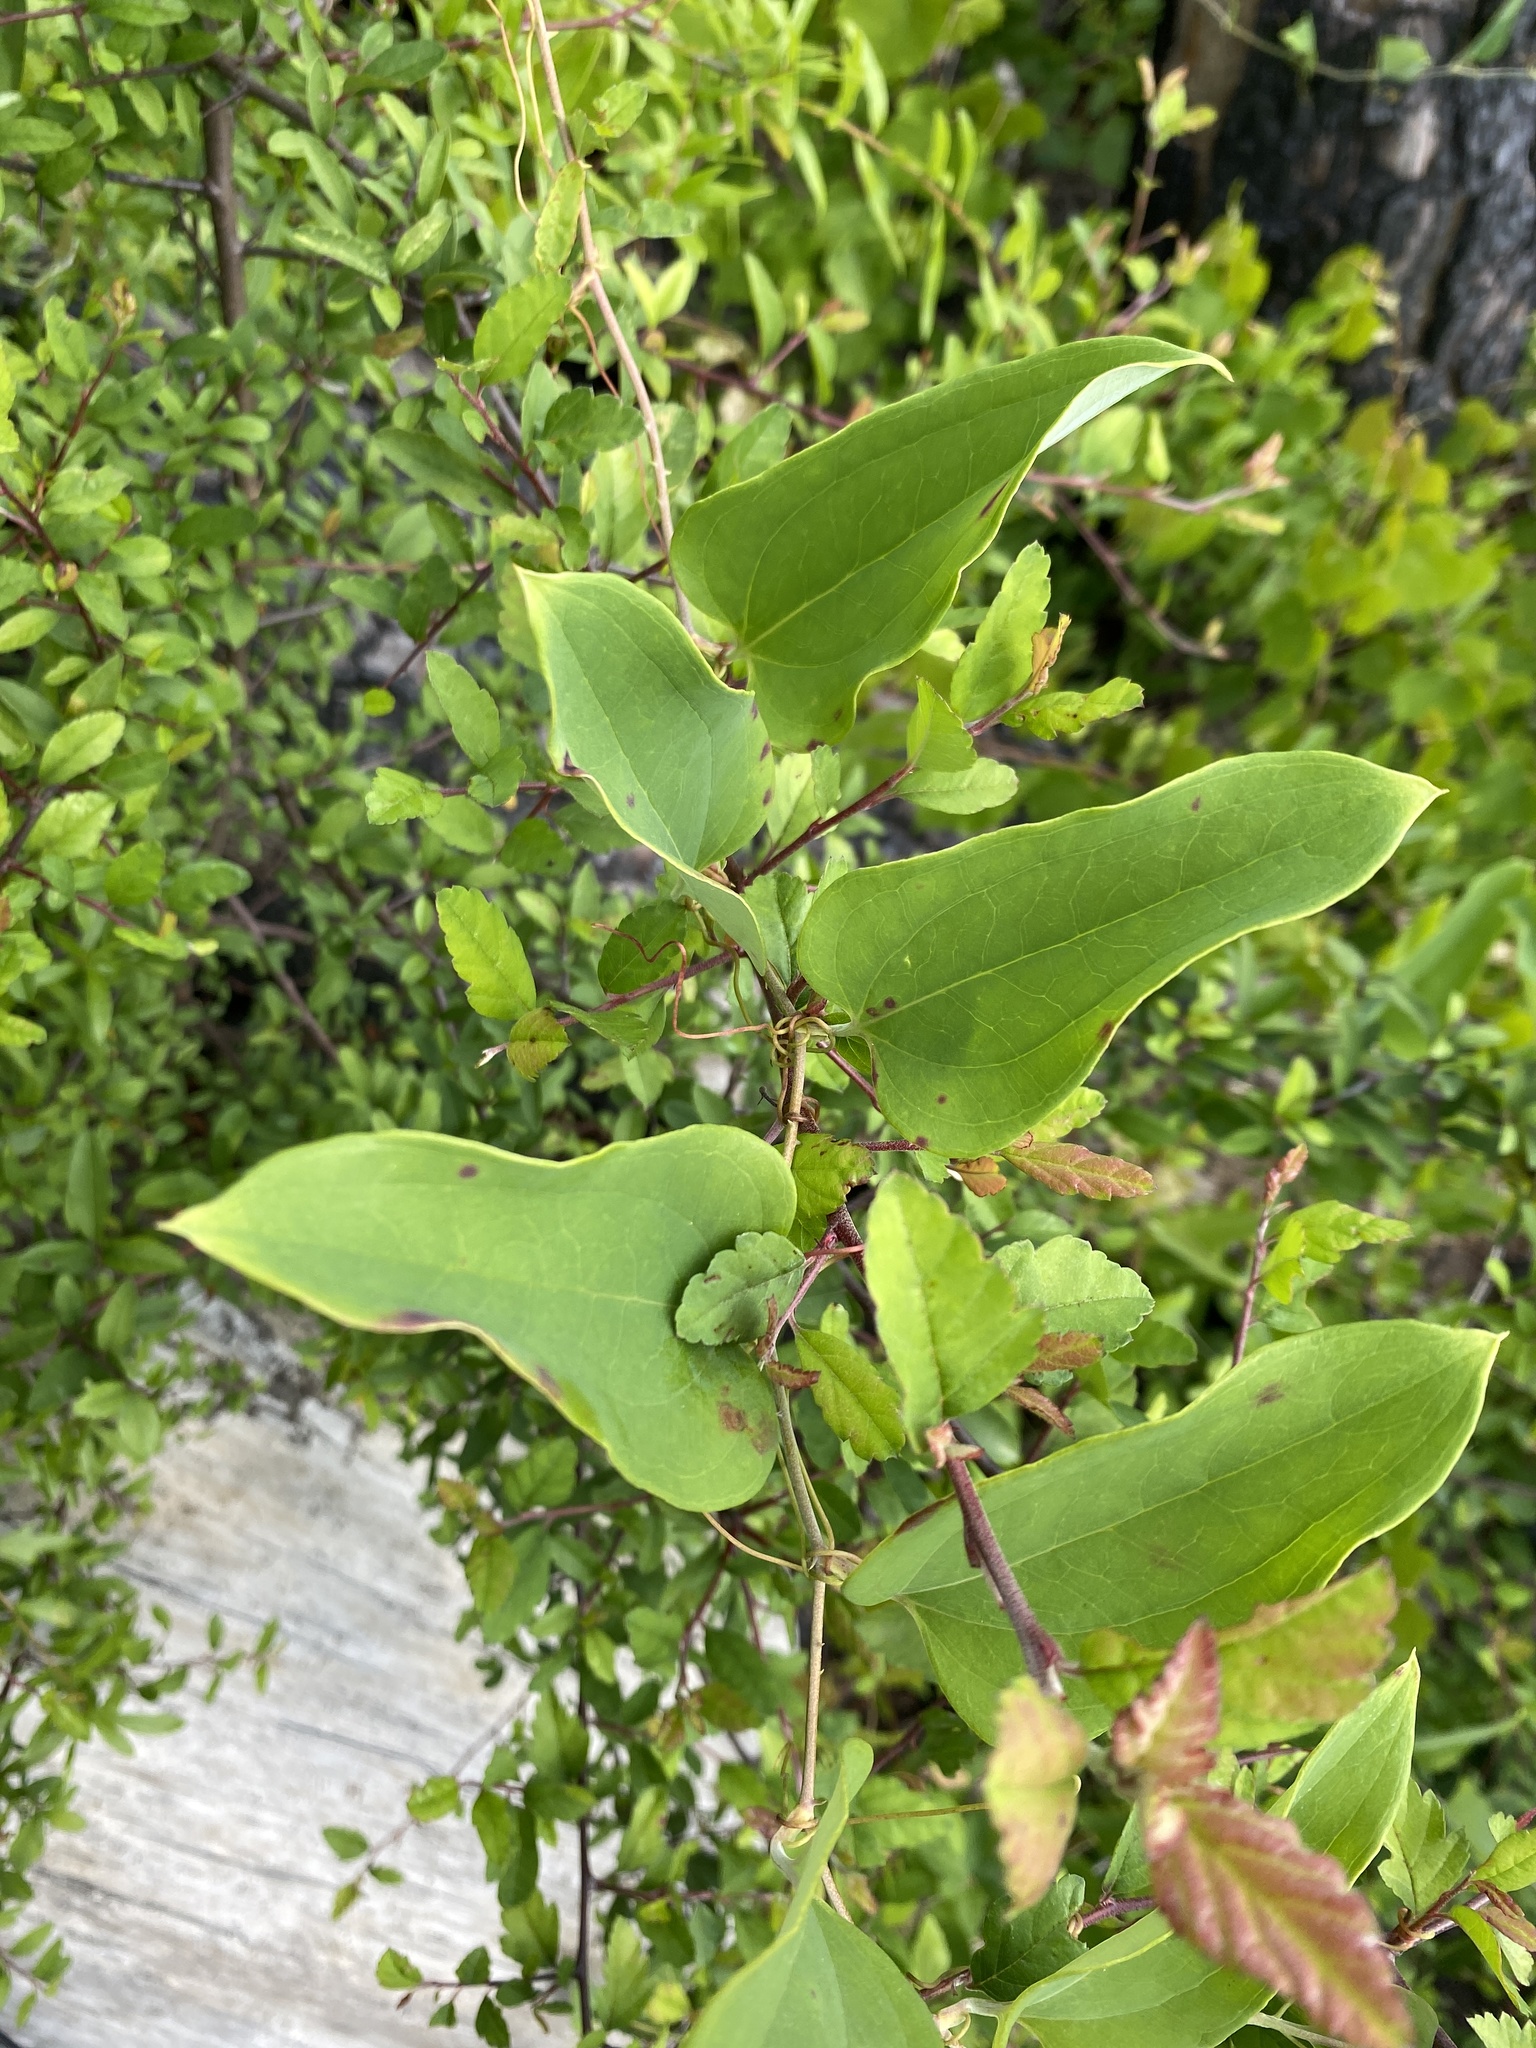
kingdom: Plantae
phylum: Tracheophyta
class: Liliopsida
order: Liliales
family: Smilacaceae
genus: Smilax
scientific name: Smilax glauca
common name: Cat greenbrier
